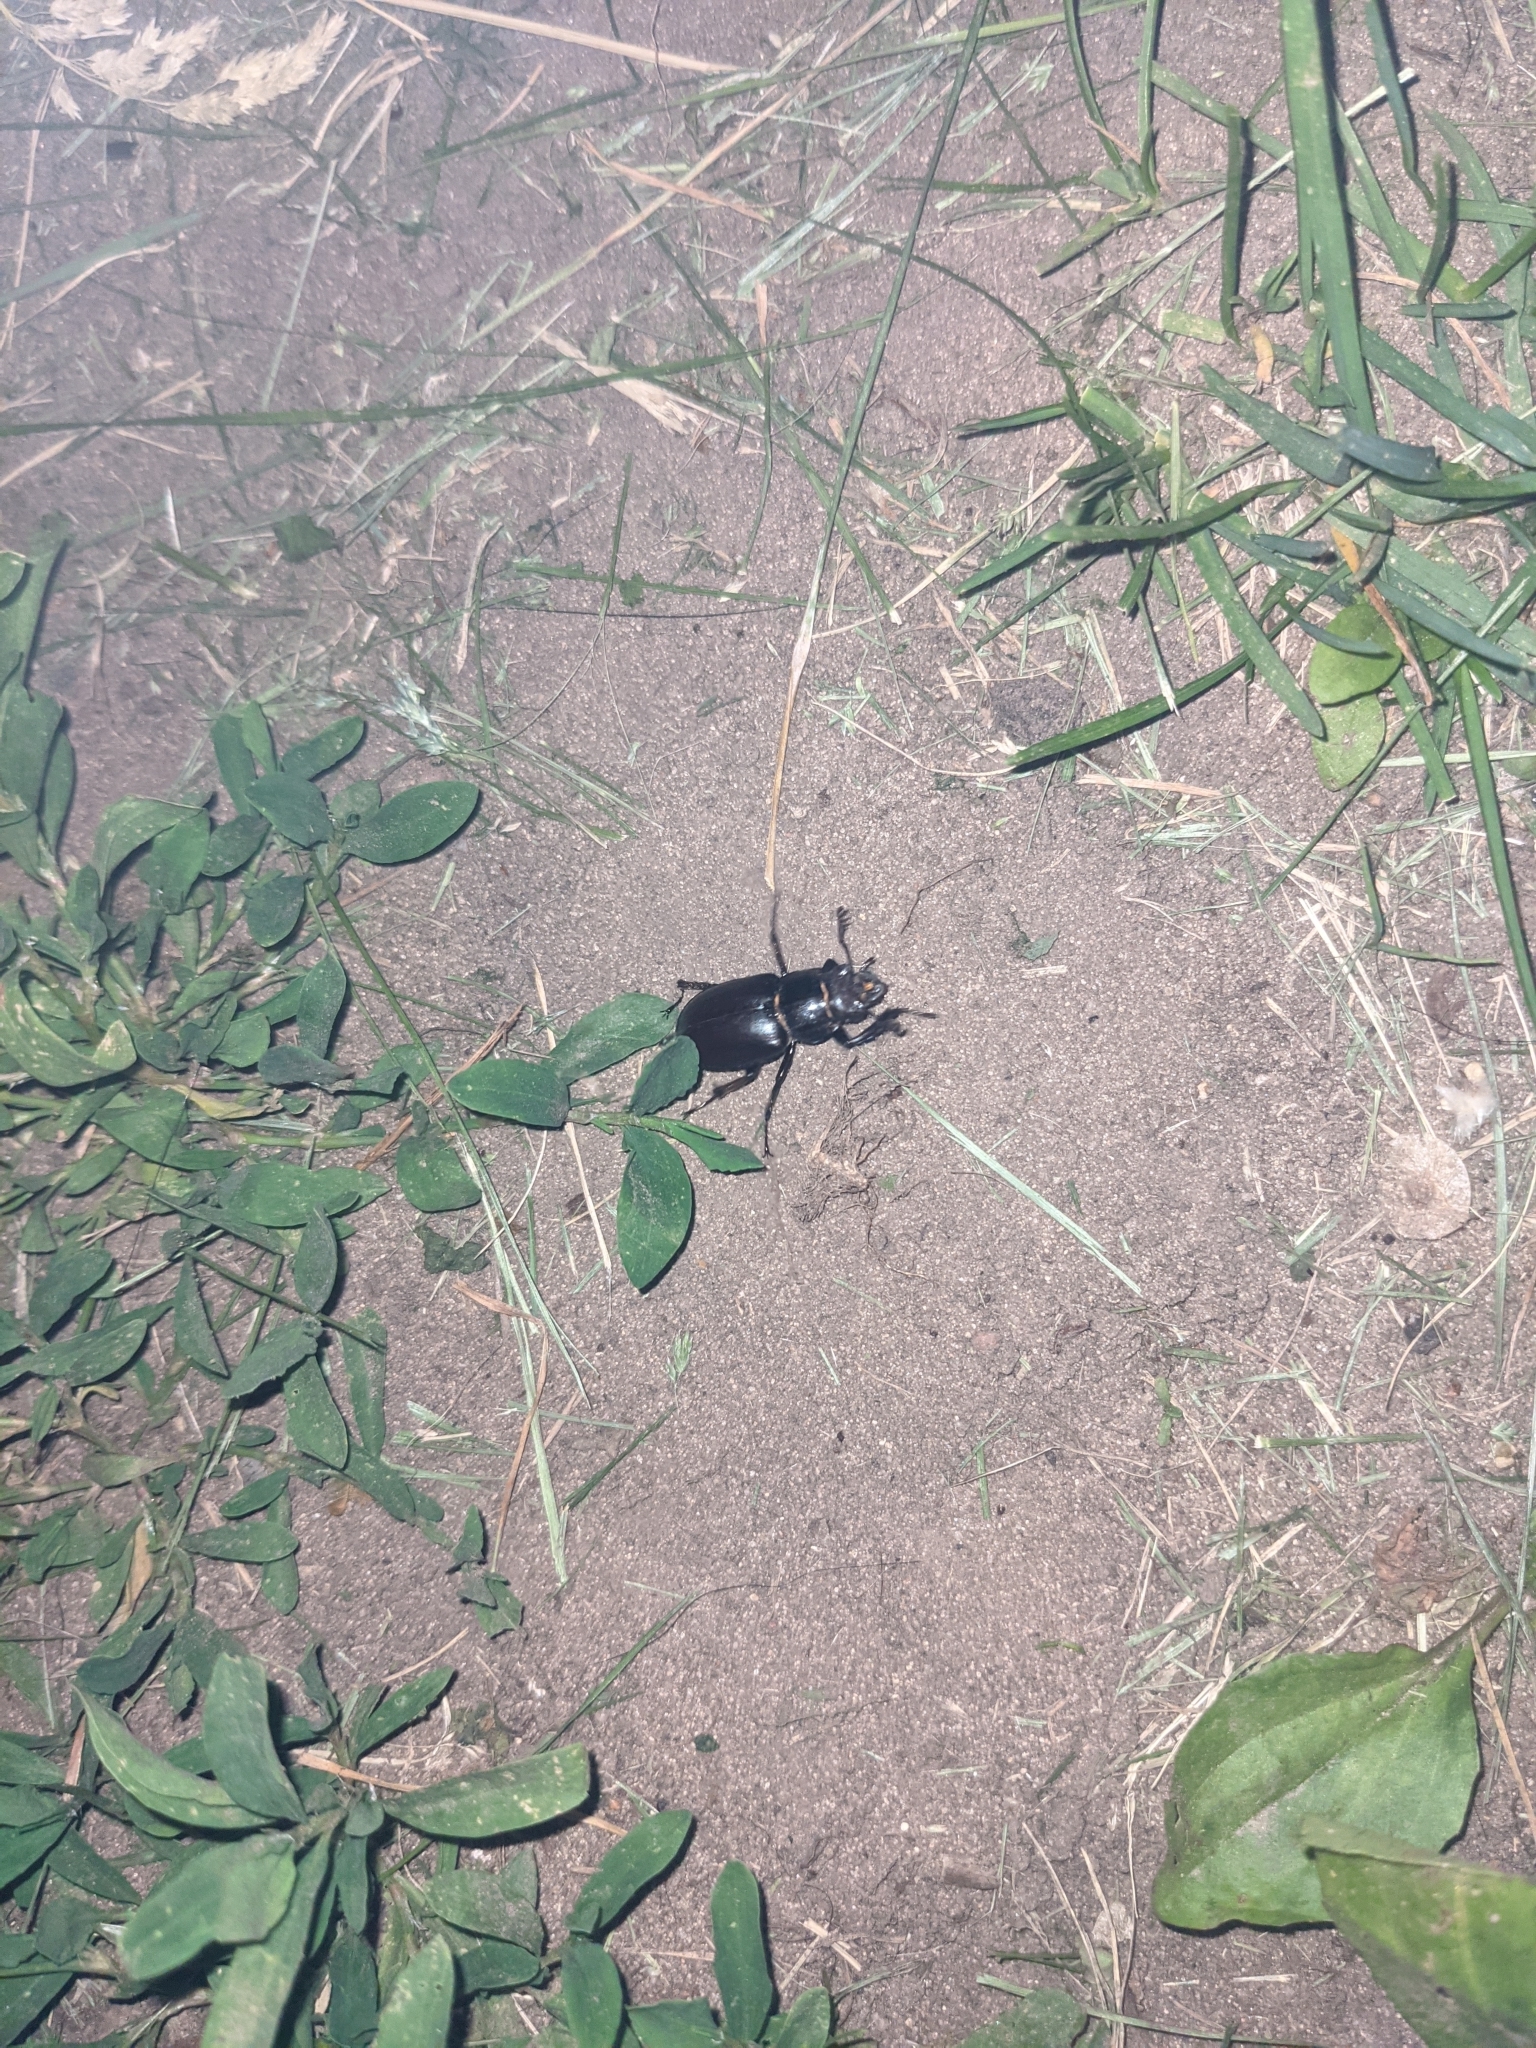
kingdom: Animalia
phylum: Arthropoda
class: Insecta
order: Coleoptera
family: Lucanidae
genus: Lucanus
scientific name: Lucanus placidus
